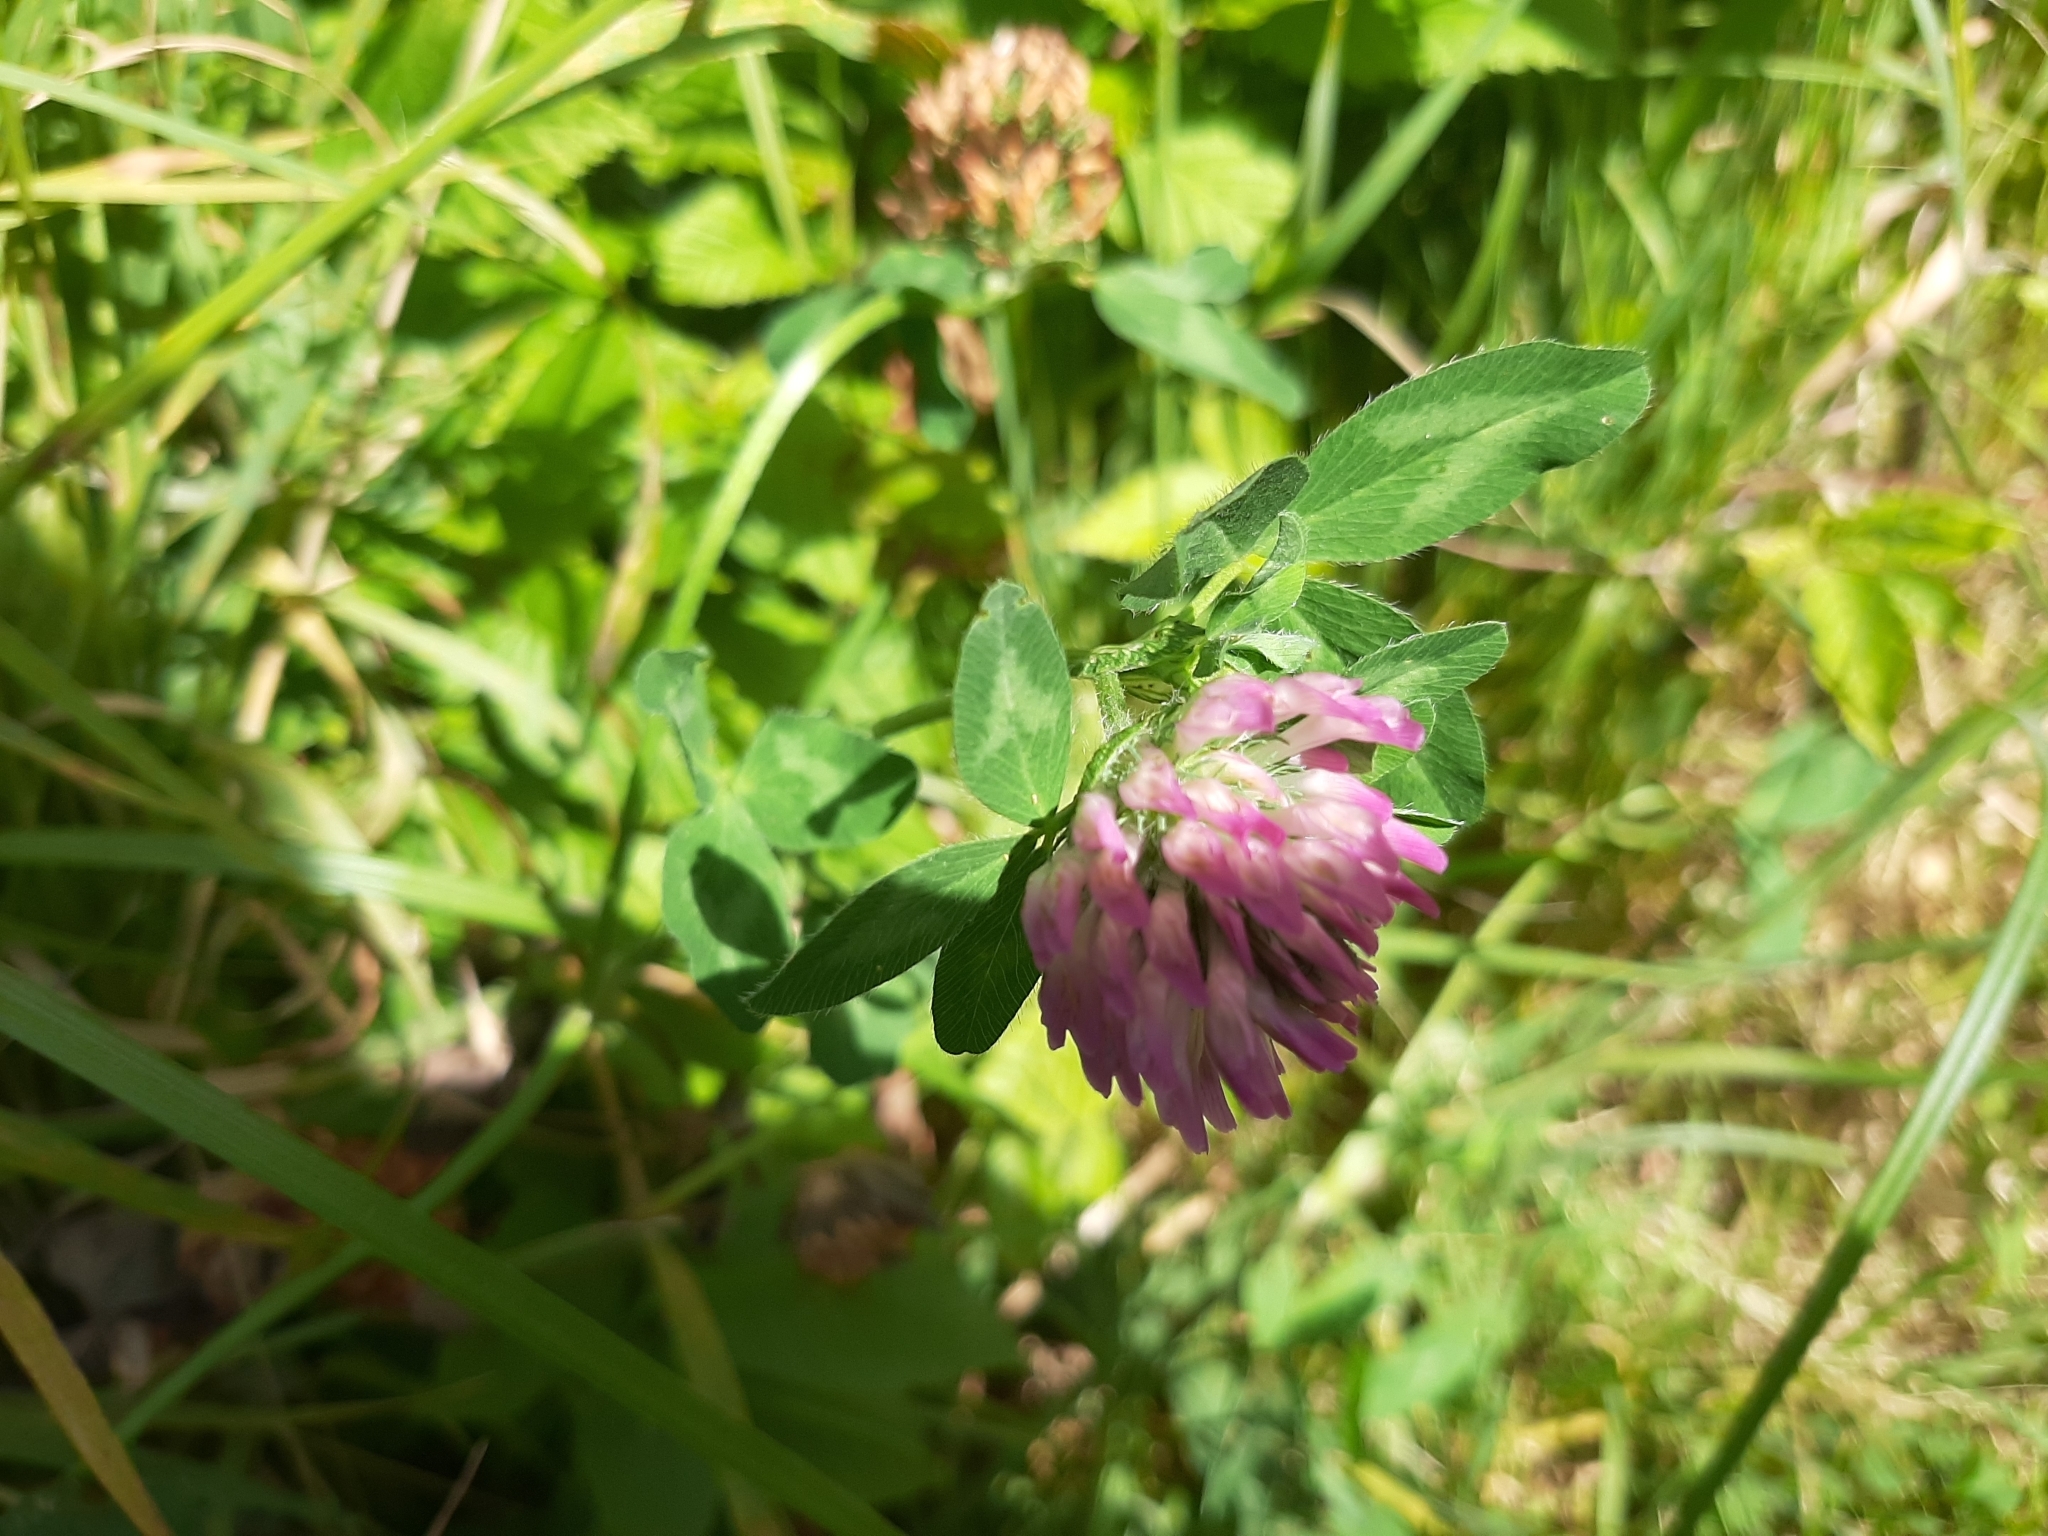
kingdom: Plantae
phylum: Tracheophyta
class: Magnoliopsida
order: Fabales
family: Fabaceae
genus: Trifolium
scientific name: Trifolium pratense
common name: Red clover
